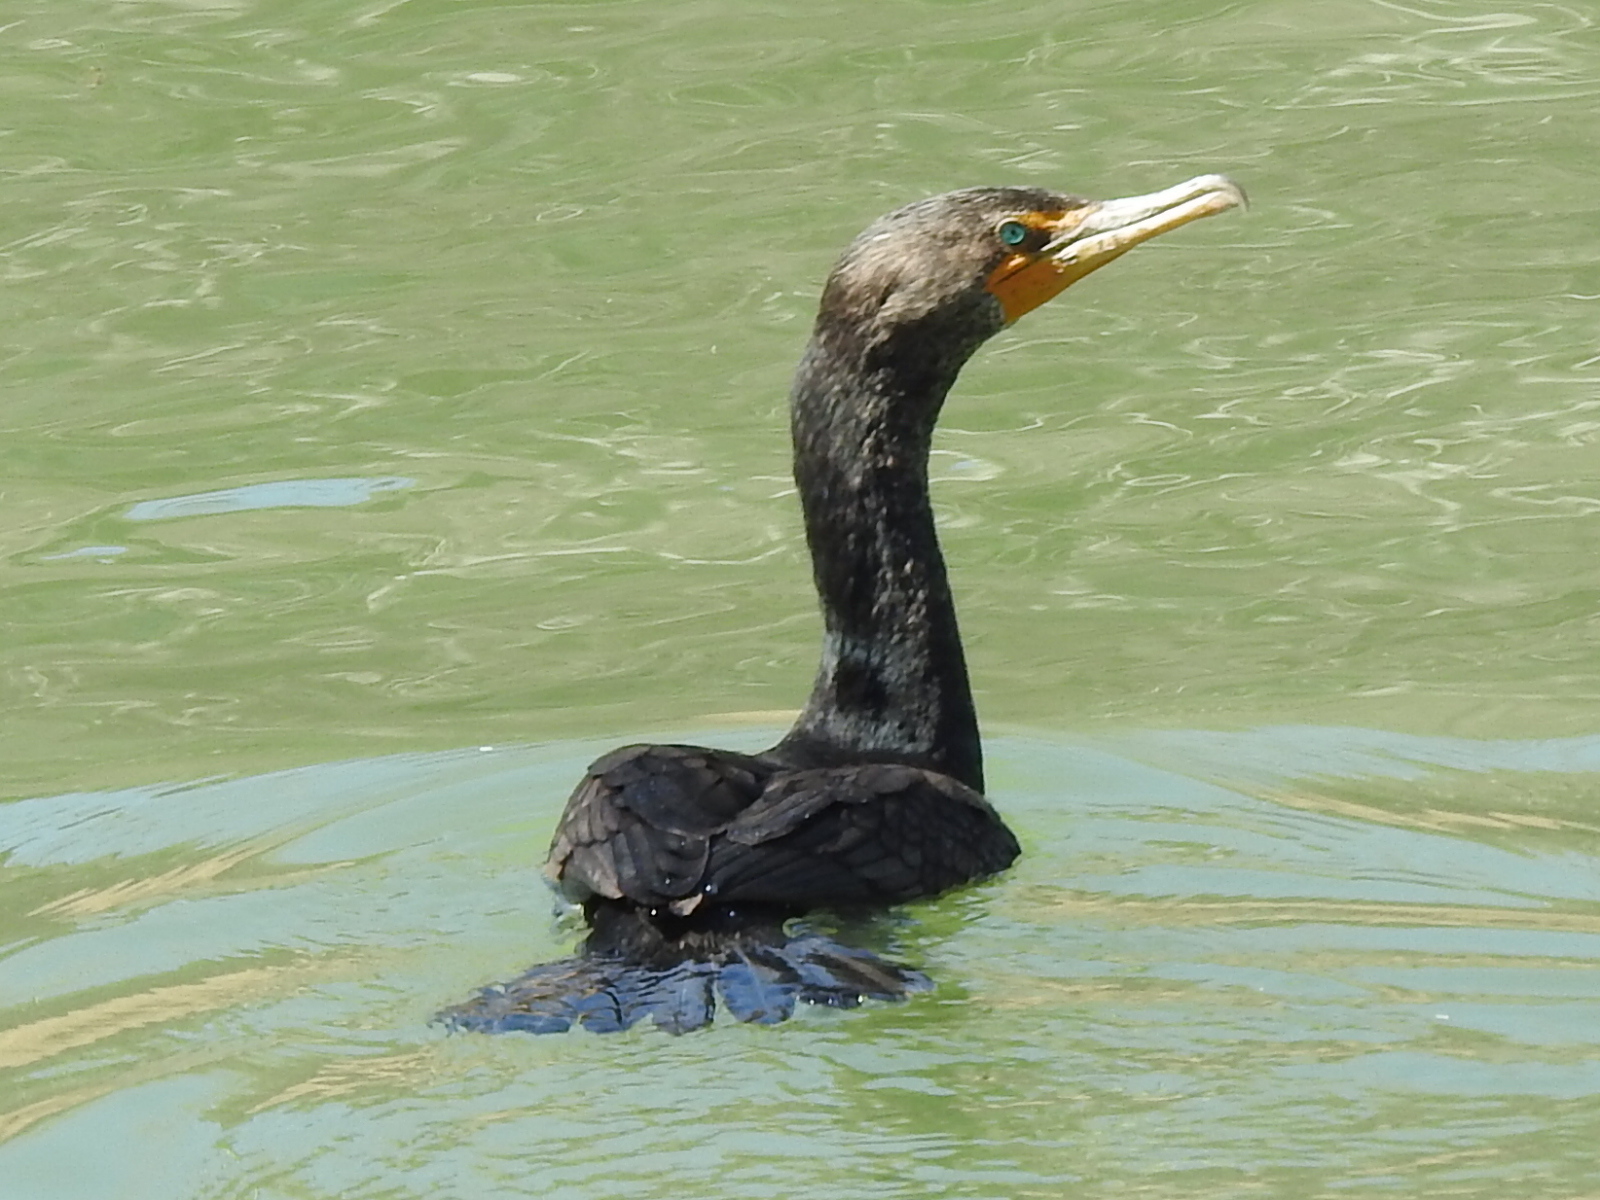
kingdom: Animalia
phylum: Chordata
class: Aves
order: Suliformes
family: Phalacrocoracidae
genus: Phalacrocorax
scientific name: Phalacrocorax auritus
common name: Double-crested cormorant
